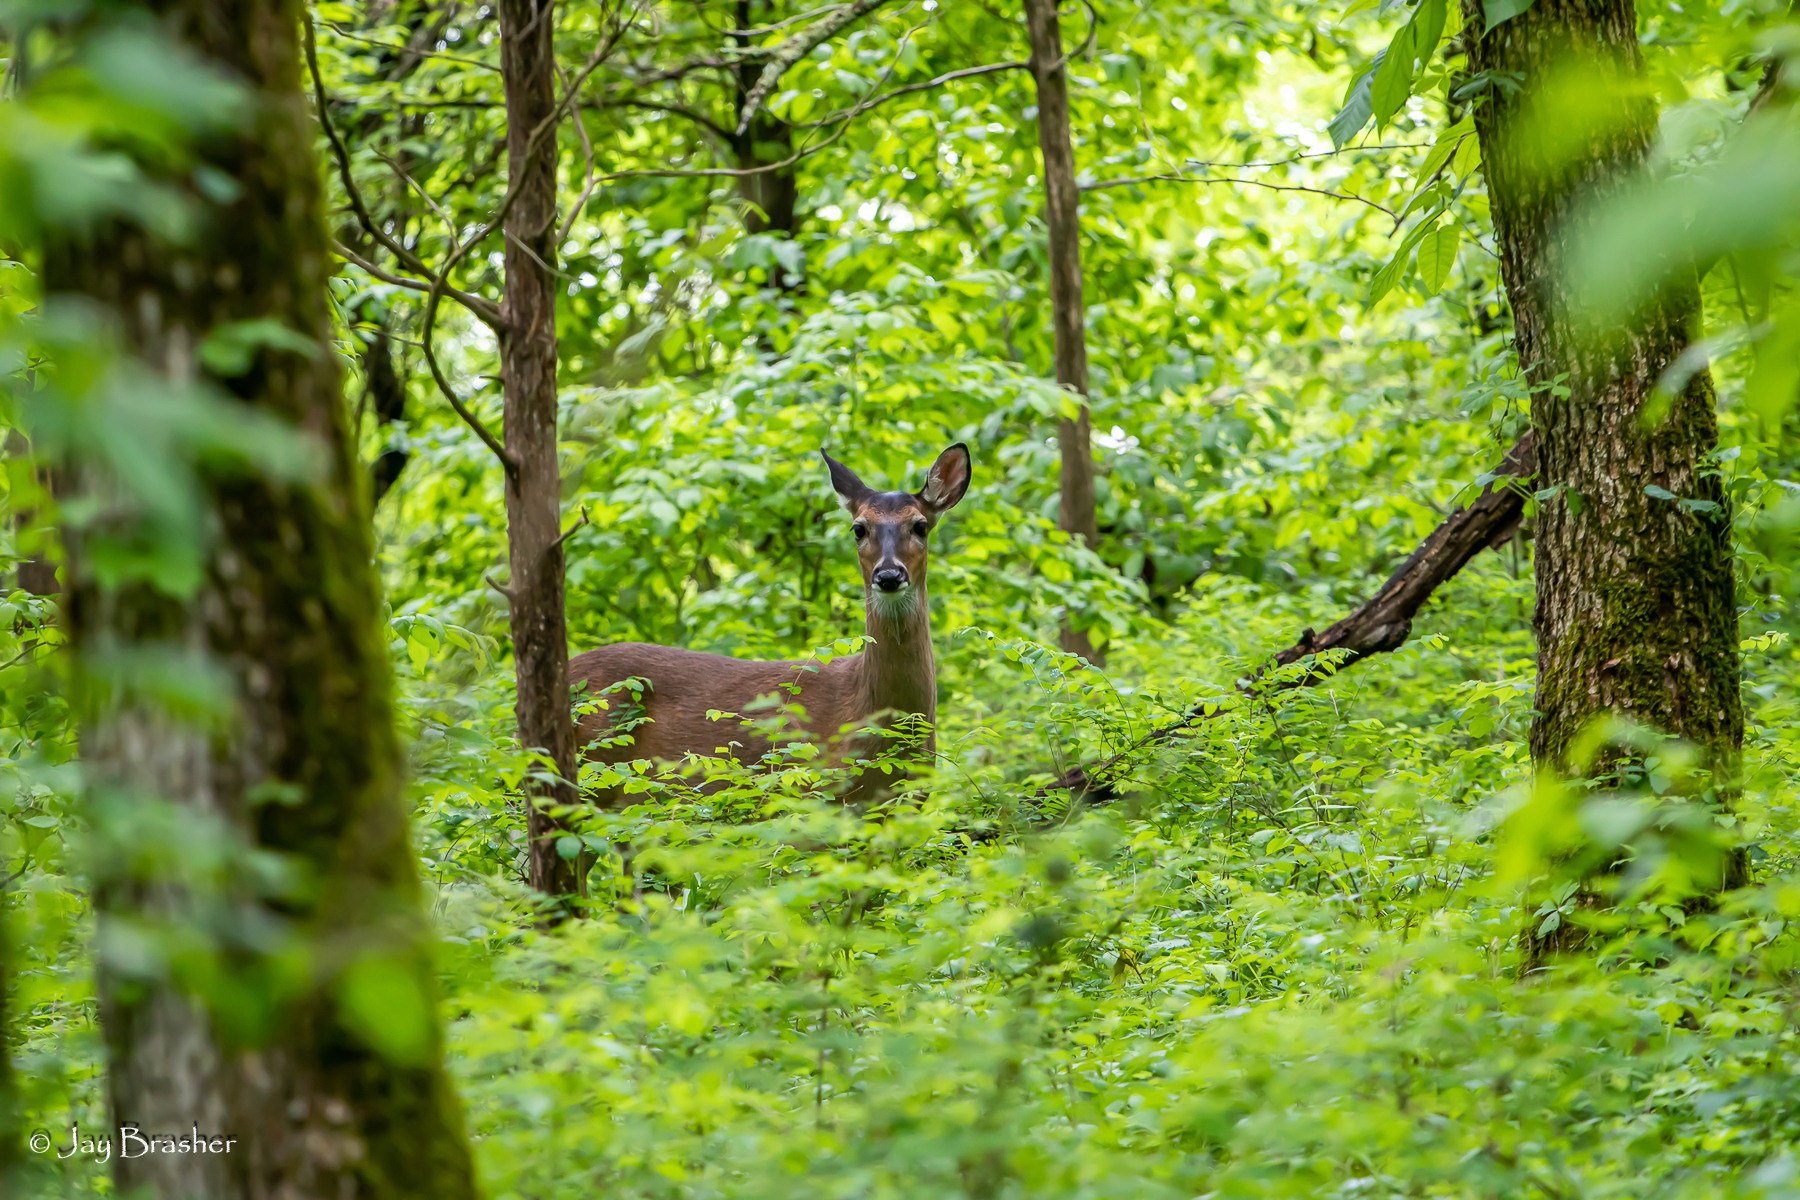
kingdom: Animalia
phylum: Chordata
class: Mammalia
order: Artiodactyla
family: Cervidae
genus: Odocoileus
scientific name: Odocoileus virginianus
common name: White-tailed deer
